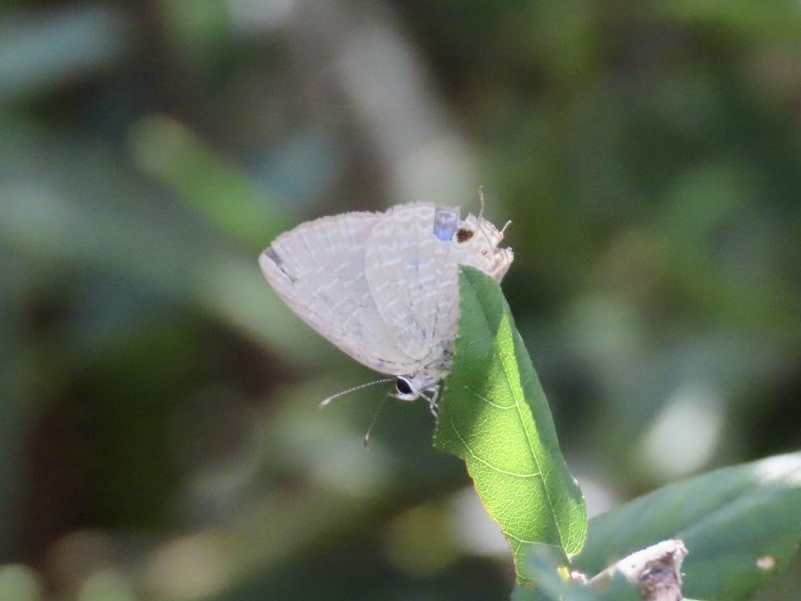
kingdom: Animalia
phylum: Arthropoda
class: Insecta
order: Lepidoptera
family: Lycaenidae
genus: Jamides
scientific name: Jamides bochus
